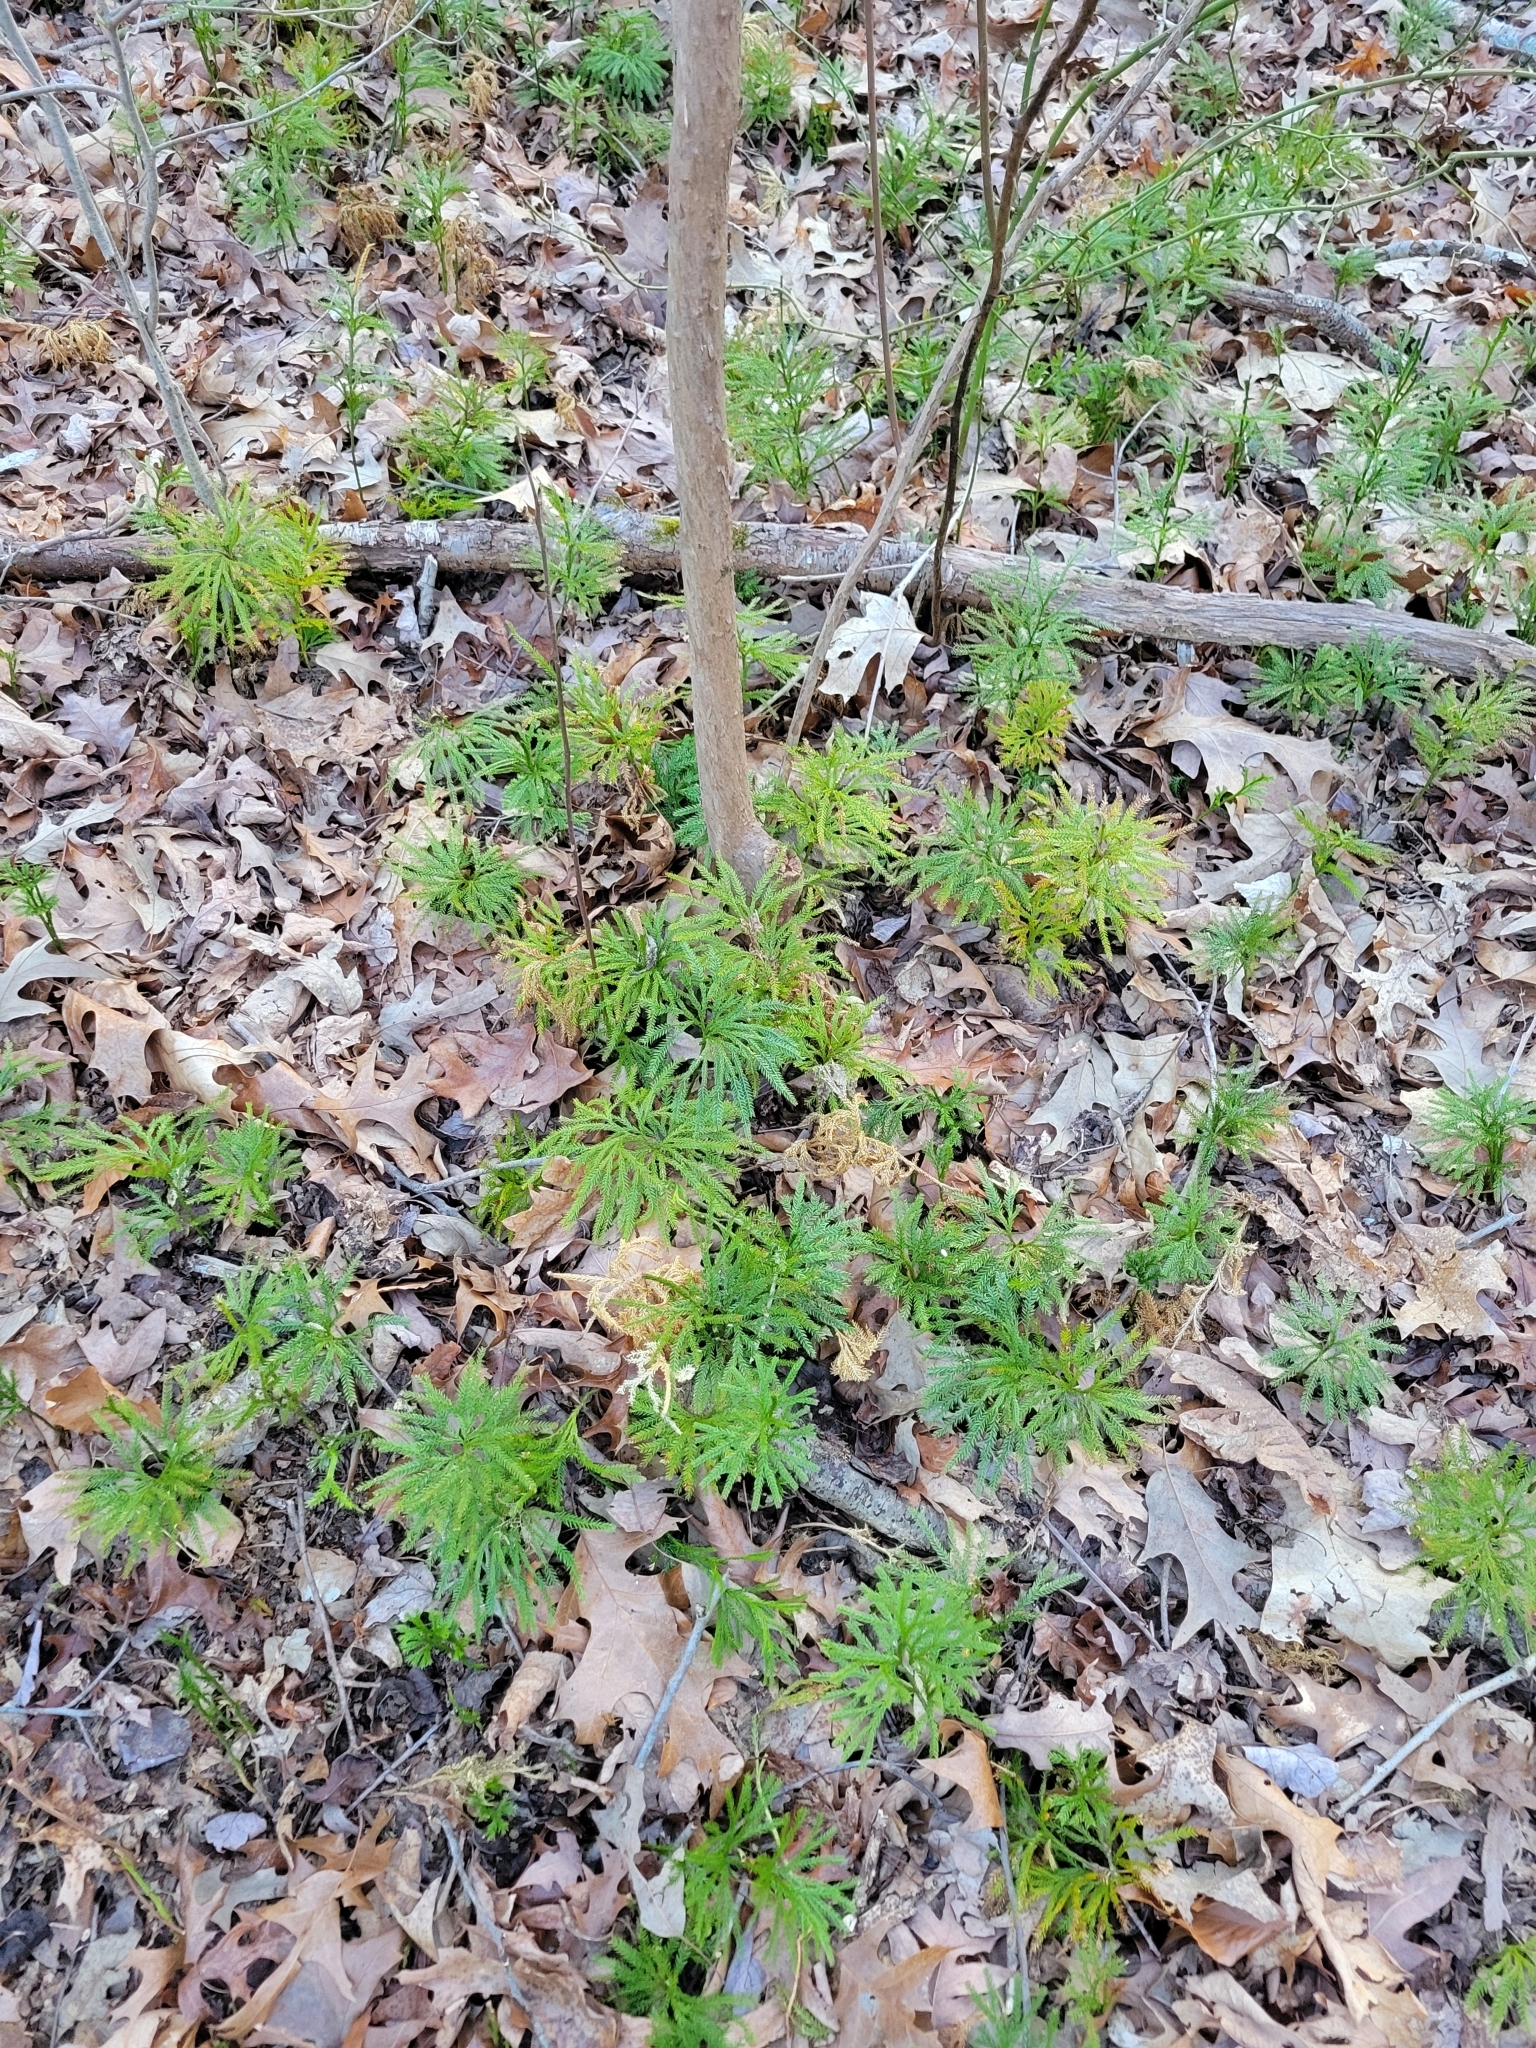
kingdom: Plantae
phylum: Tracheophyta
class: Lycopodiopsida
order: Lycopodiales
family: Lycopodiaceae
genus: Dendrolycopodium
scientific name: Dendrolycopodium obscurum
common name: Common ground-pine
